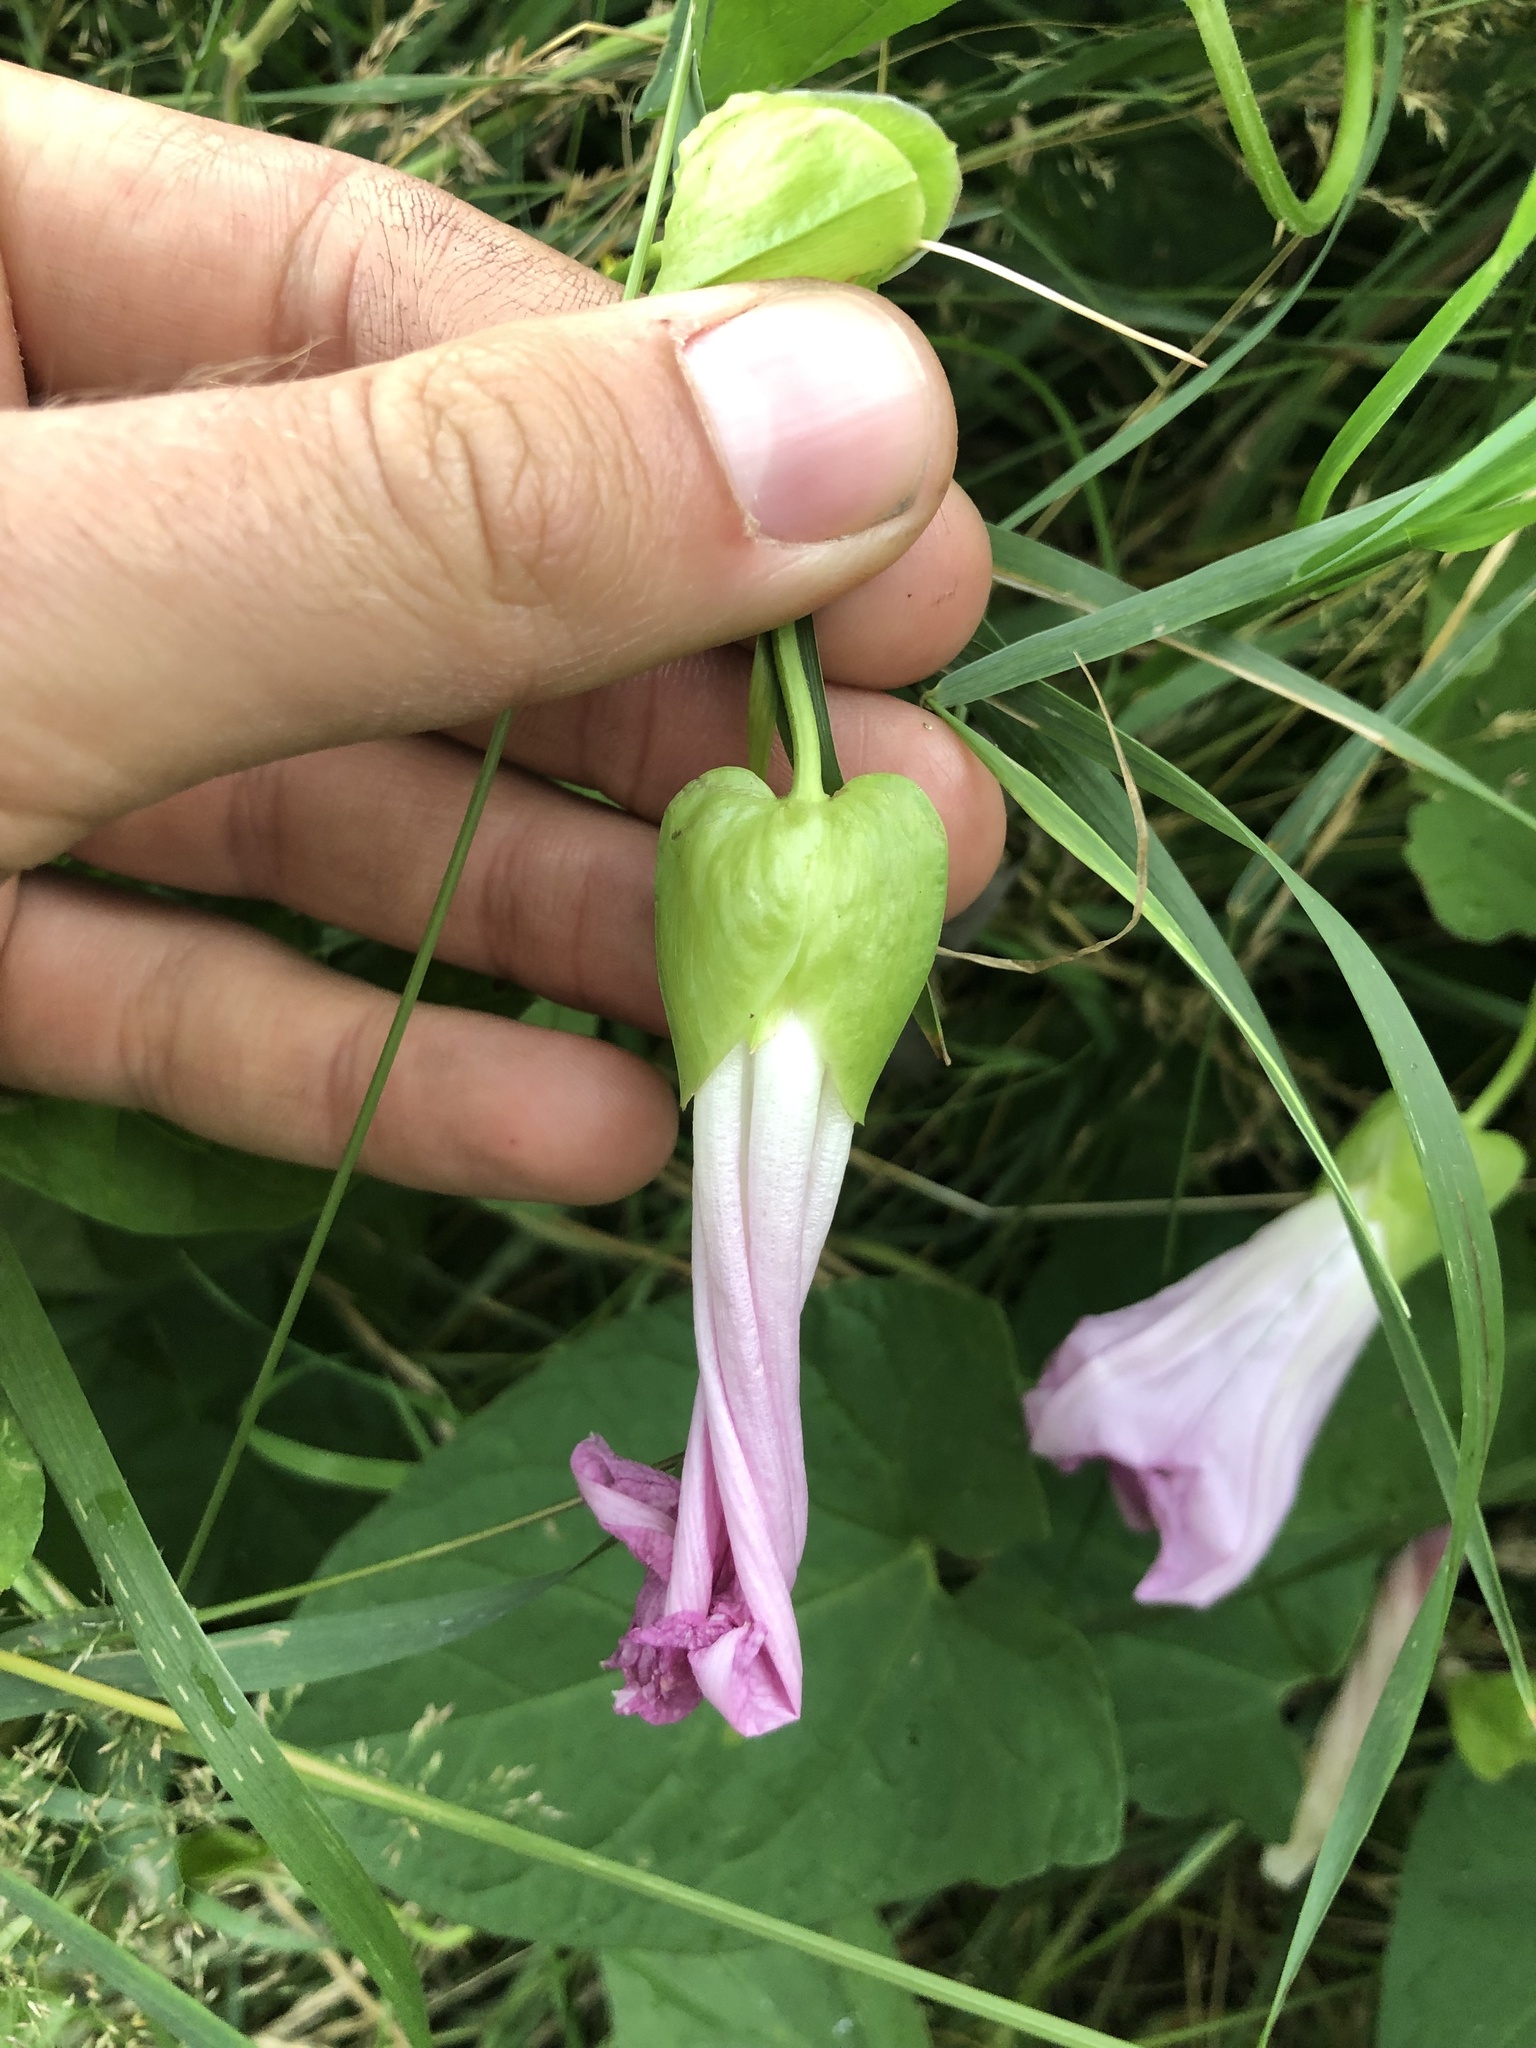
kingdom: Plantae
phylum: Tracheophyta
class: Magnoliopsida
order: Solanales
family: Convolvulaceae
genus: Calystegia
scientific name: Calystegia pulchra
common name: Hairy bindweed
